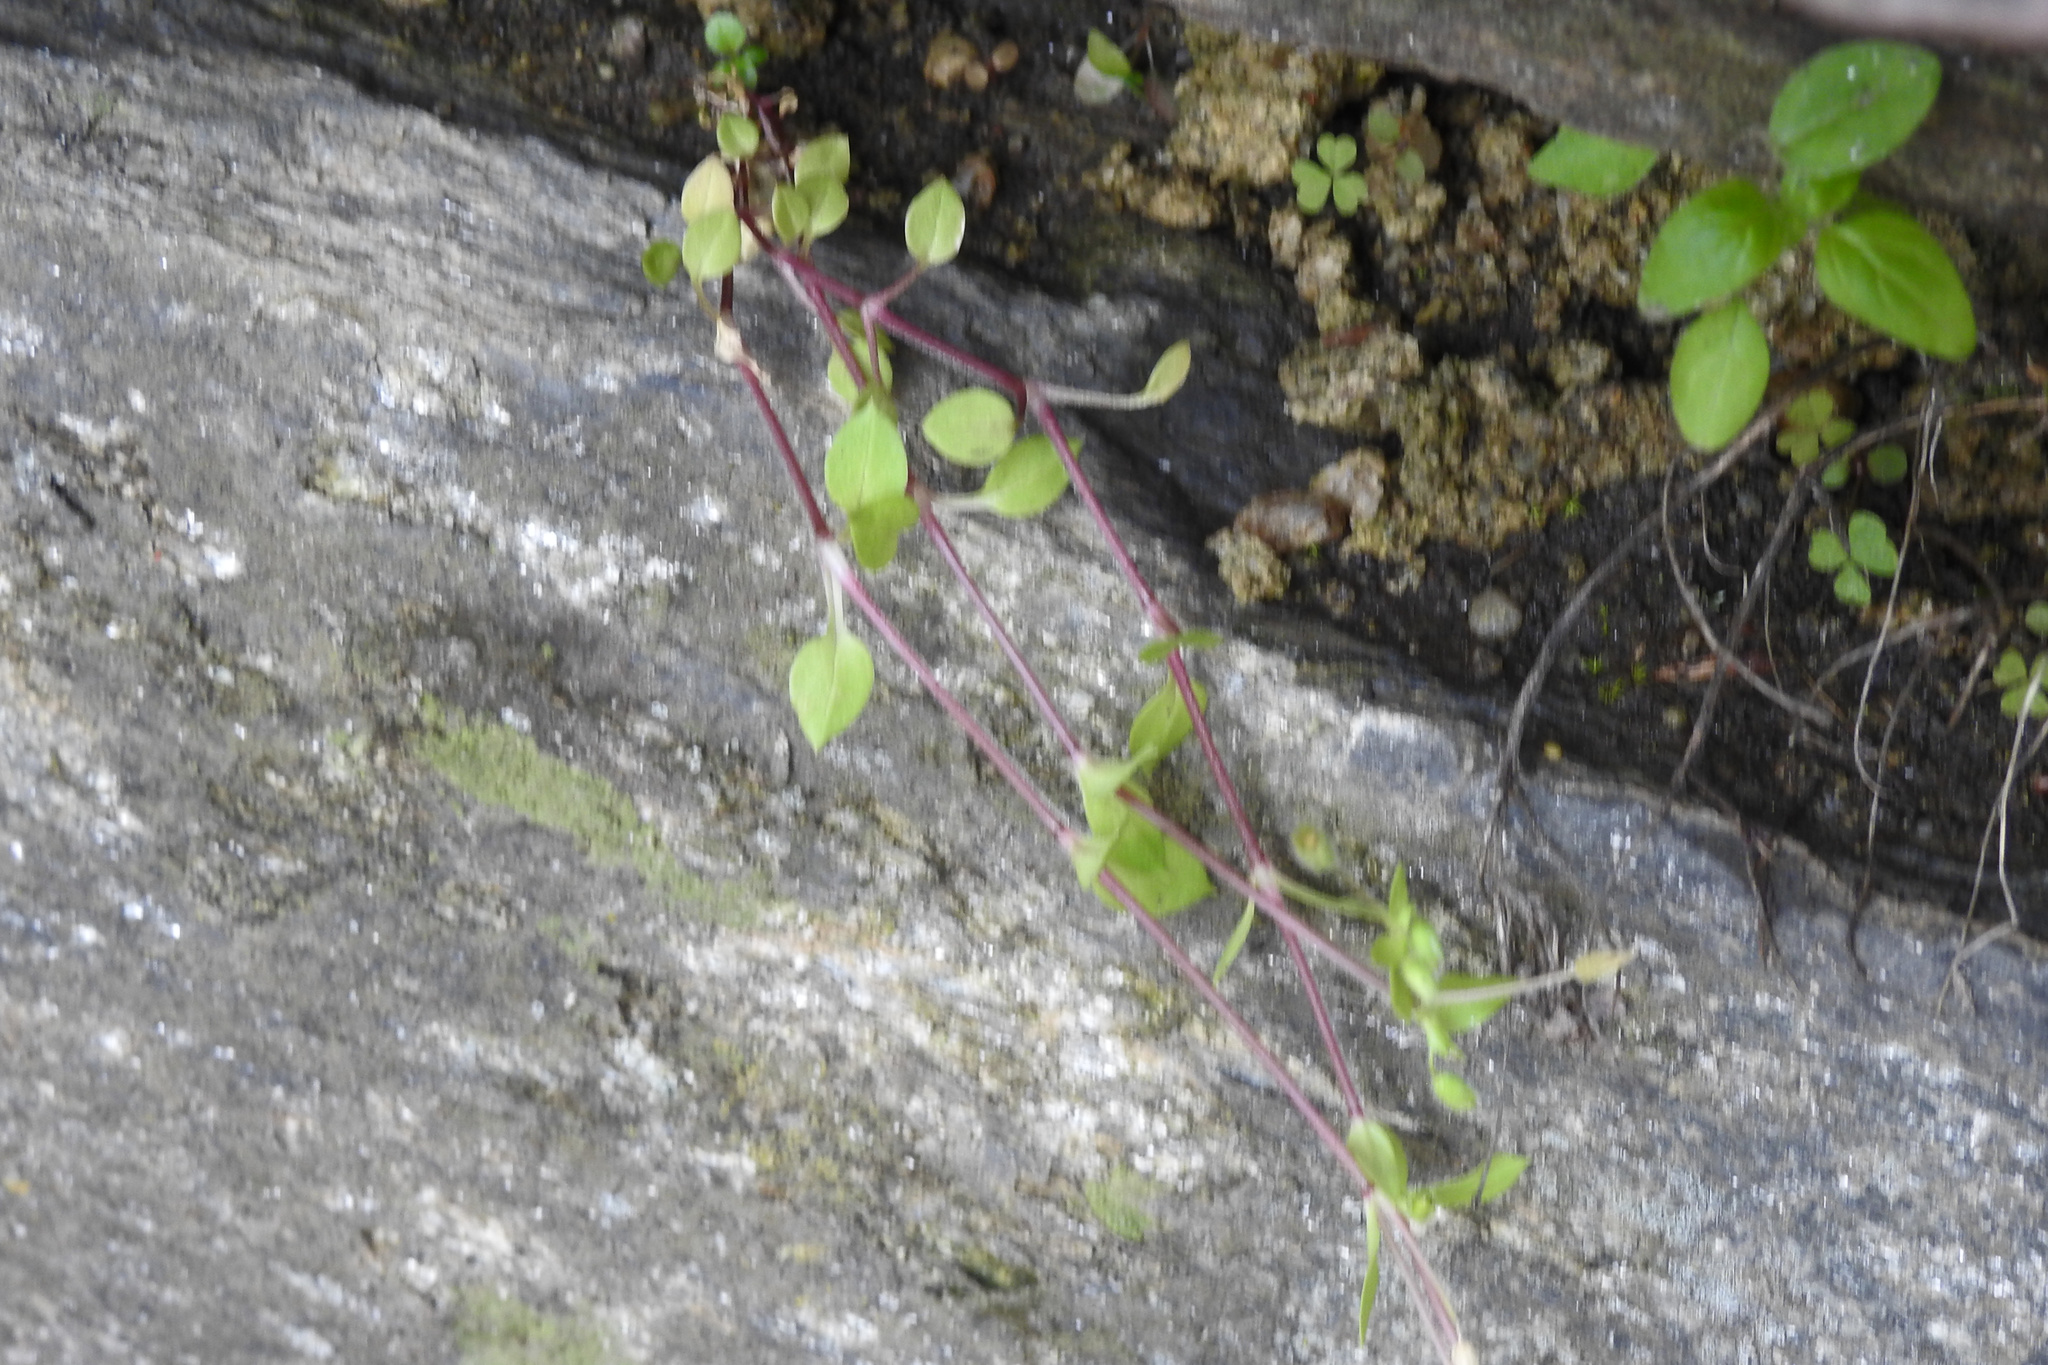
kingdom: Plantae
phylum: Tracheophyta
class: Magnoliopsida
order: Caryophyllales
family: Caryophyllaceae
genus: Stellaria
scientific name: Stellaria media
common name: Common chickweed
